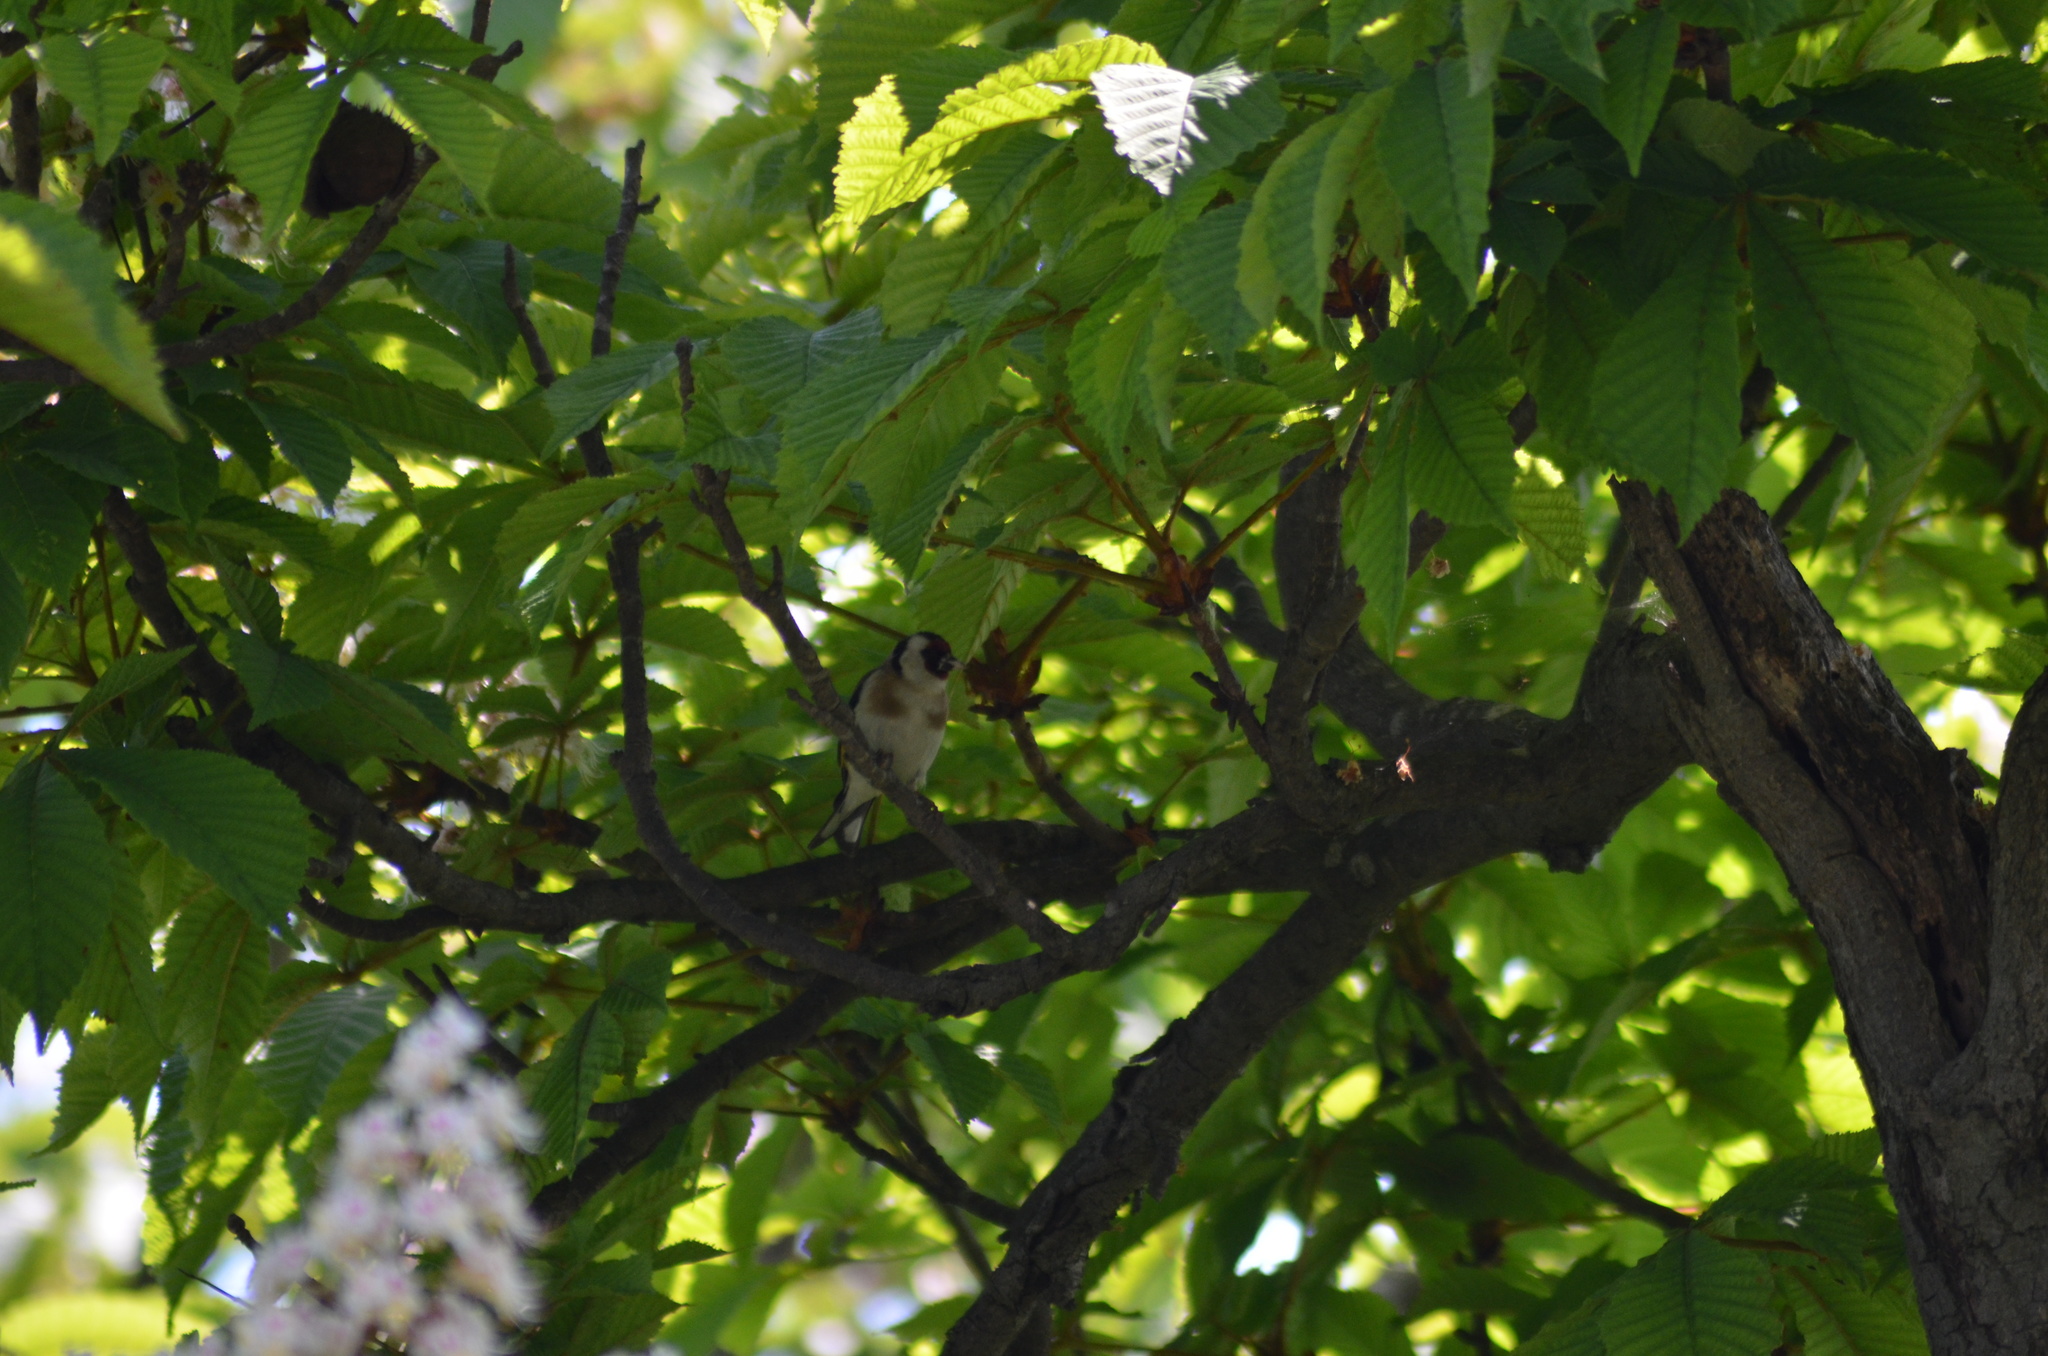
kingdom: Animalia
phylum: Chordata
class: Aves
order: Passeriformes
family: Fringillidae
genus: Carduelis
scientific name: Carduelis carduelis
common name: European goldfinch
